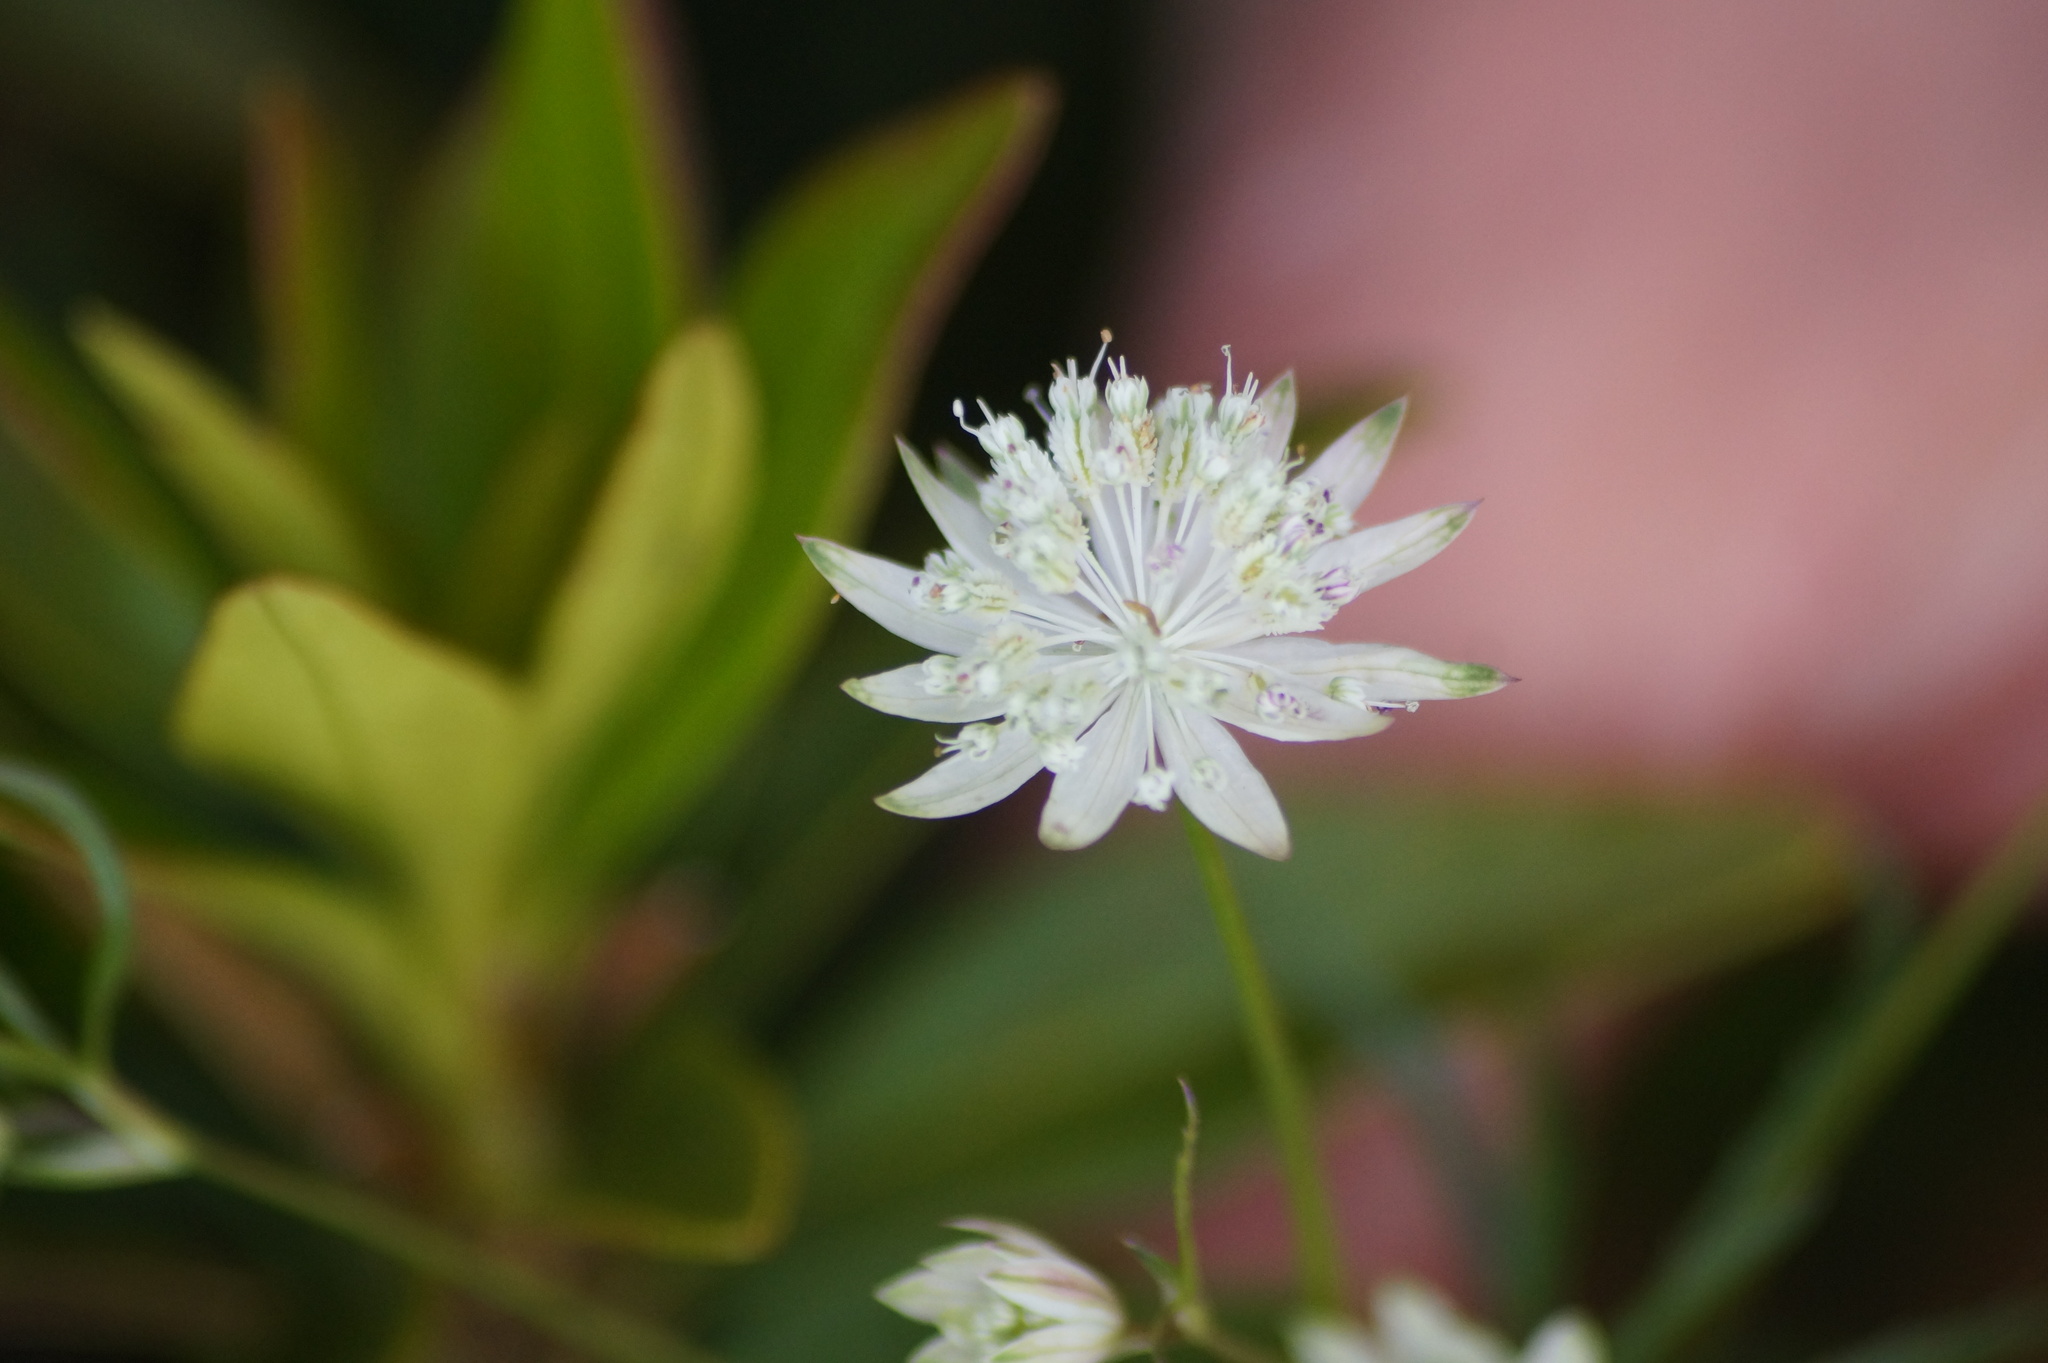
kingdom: Plantae
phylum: Tracheophyta
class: Magnoliopsida
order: Apiales
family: Apiaceae
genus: Astrantia
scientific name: Astrantia minor
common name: Lesser masterwort
